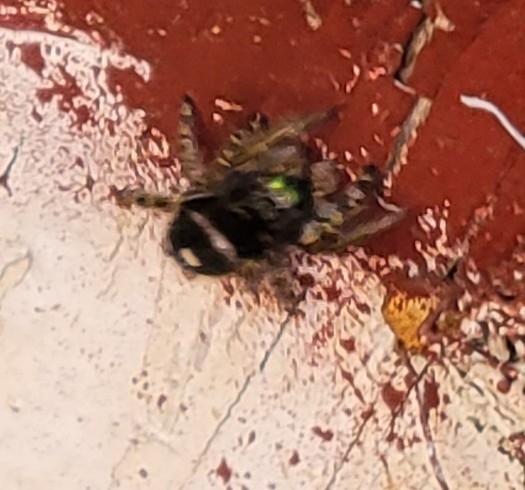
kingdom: Animalia
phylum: Arthropoda
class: Arachnida
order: Araneae
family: Salticidae
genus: Phidippus
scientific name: Phidippus audax
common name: Bold jumper
